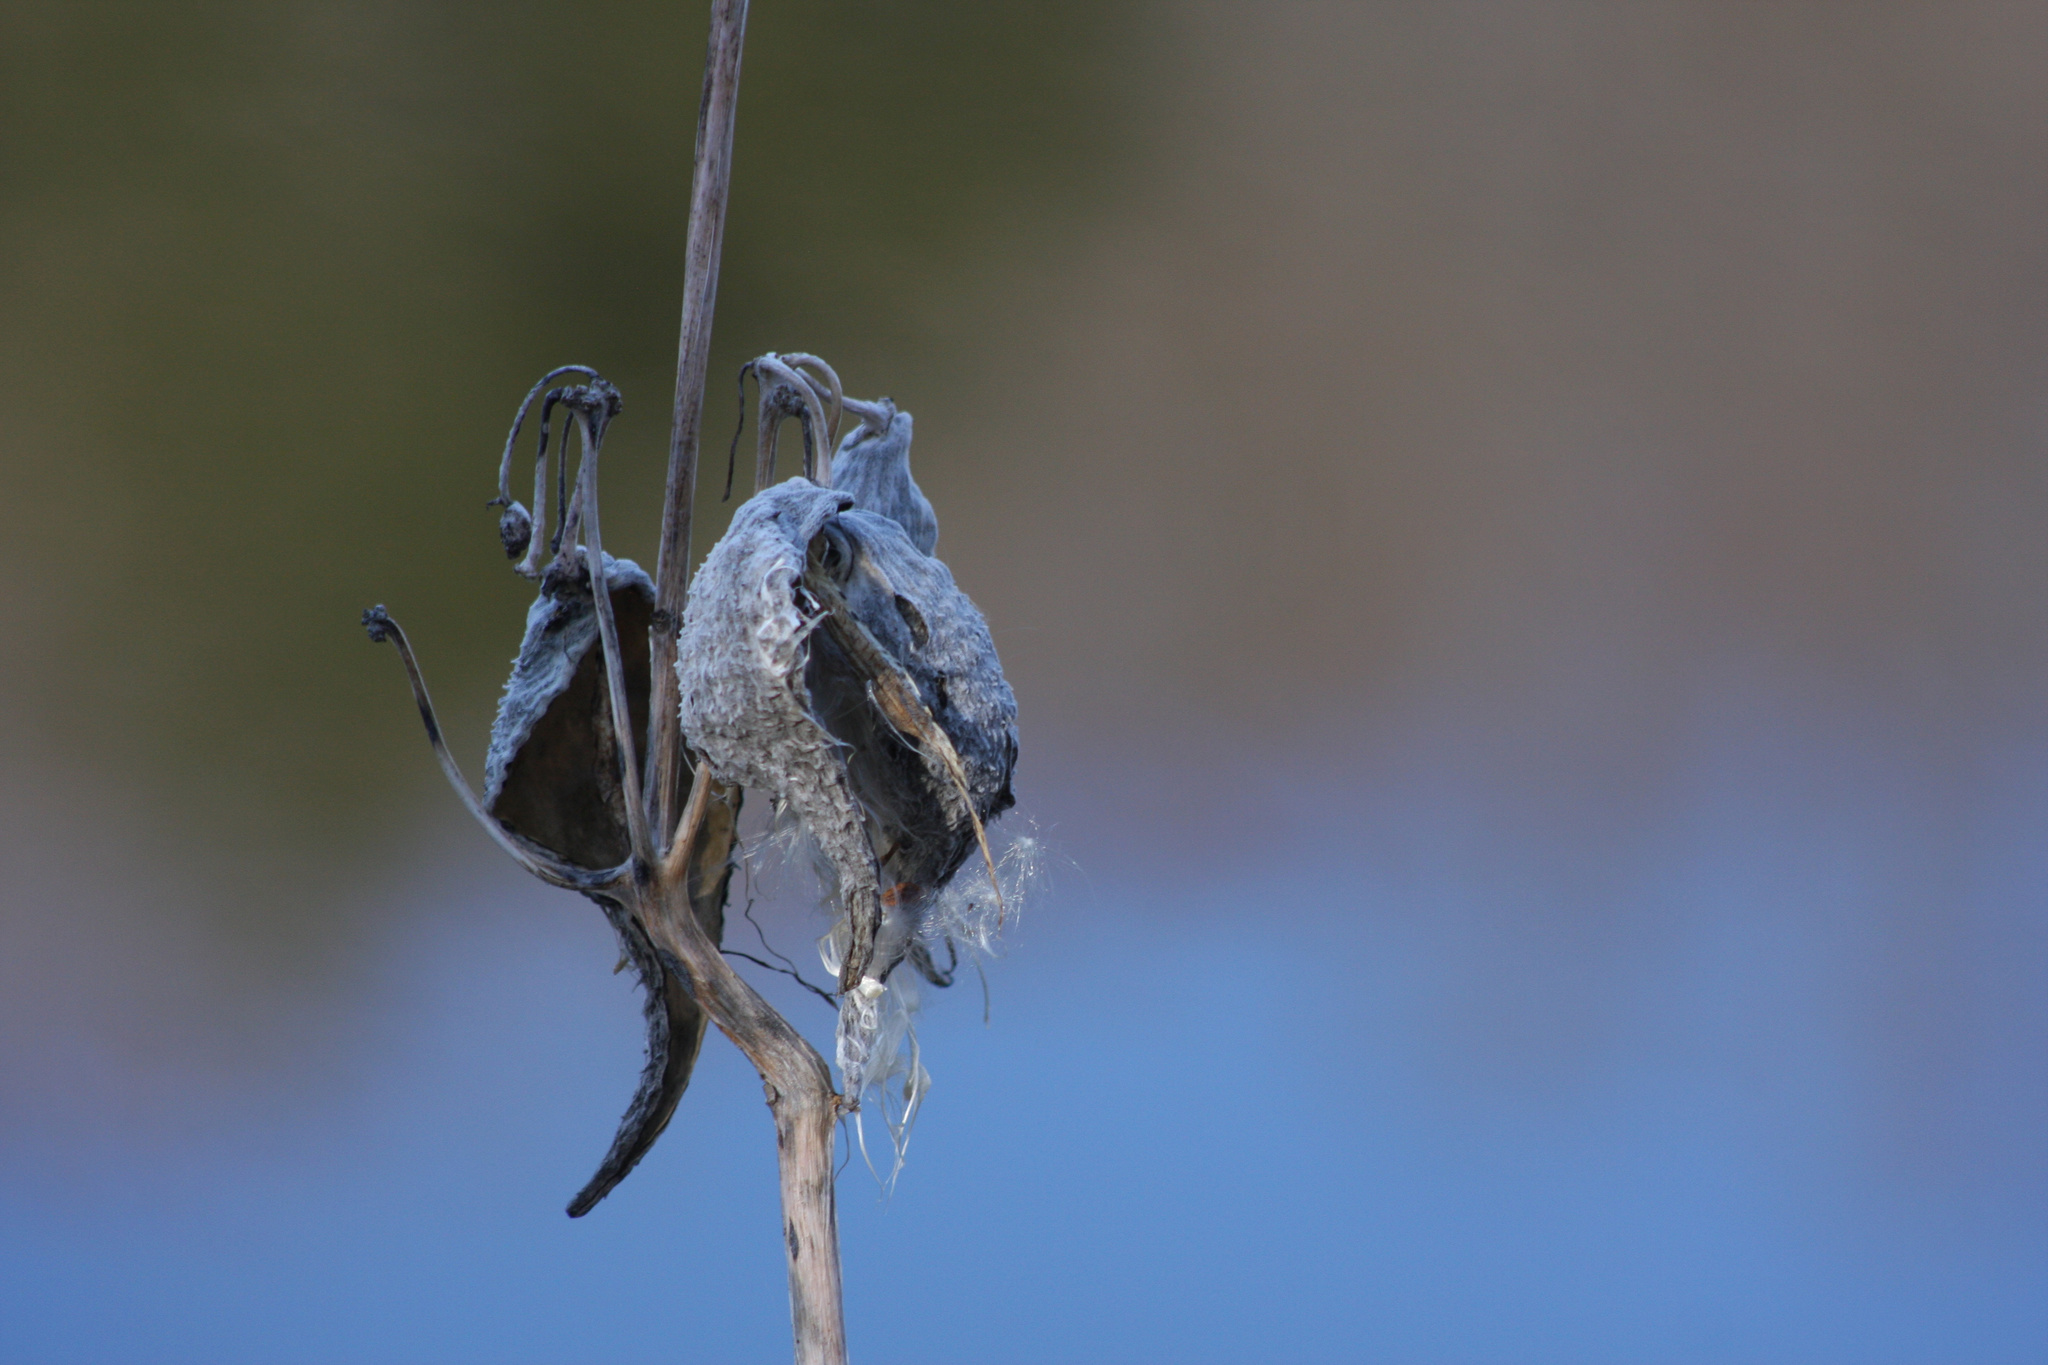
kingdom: Plantae
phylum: Tracheophyta
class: Magnoliopsida
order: Gentianales
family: Apocynaceae
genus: Asclepias
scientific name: Asclepias syriaca
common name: Common milkweed
